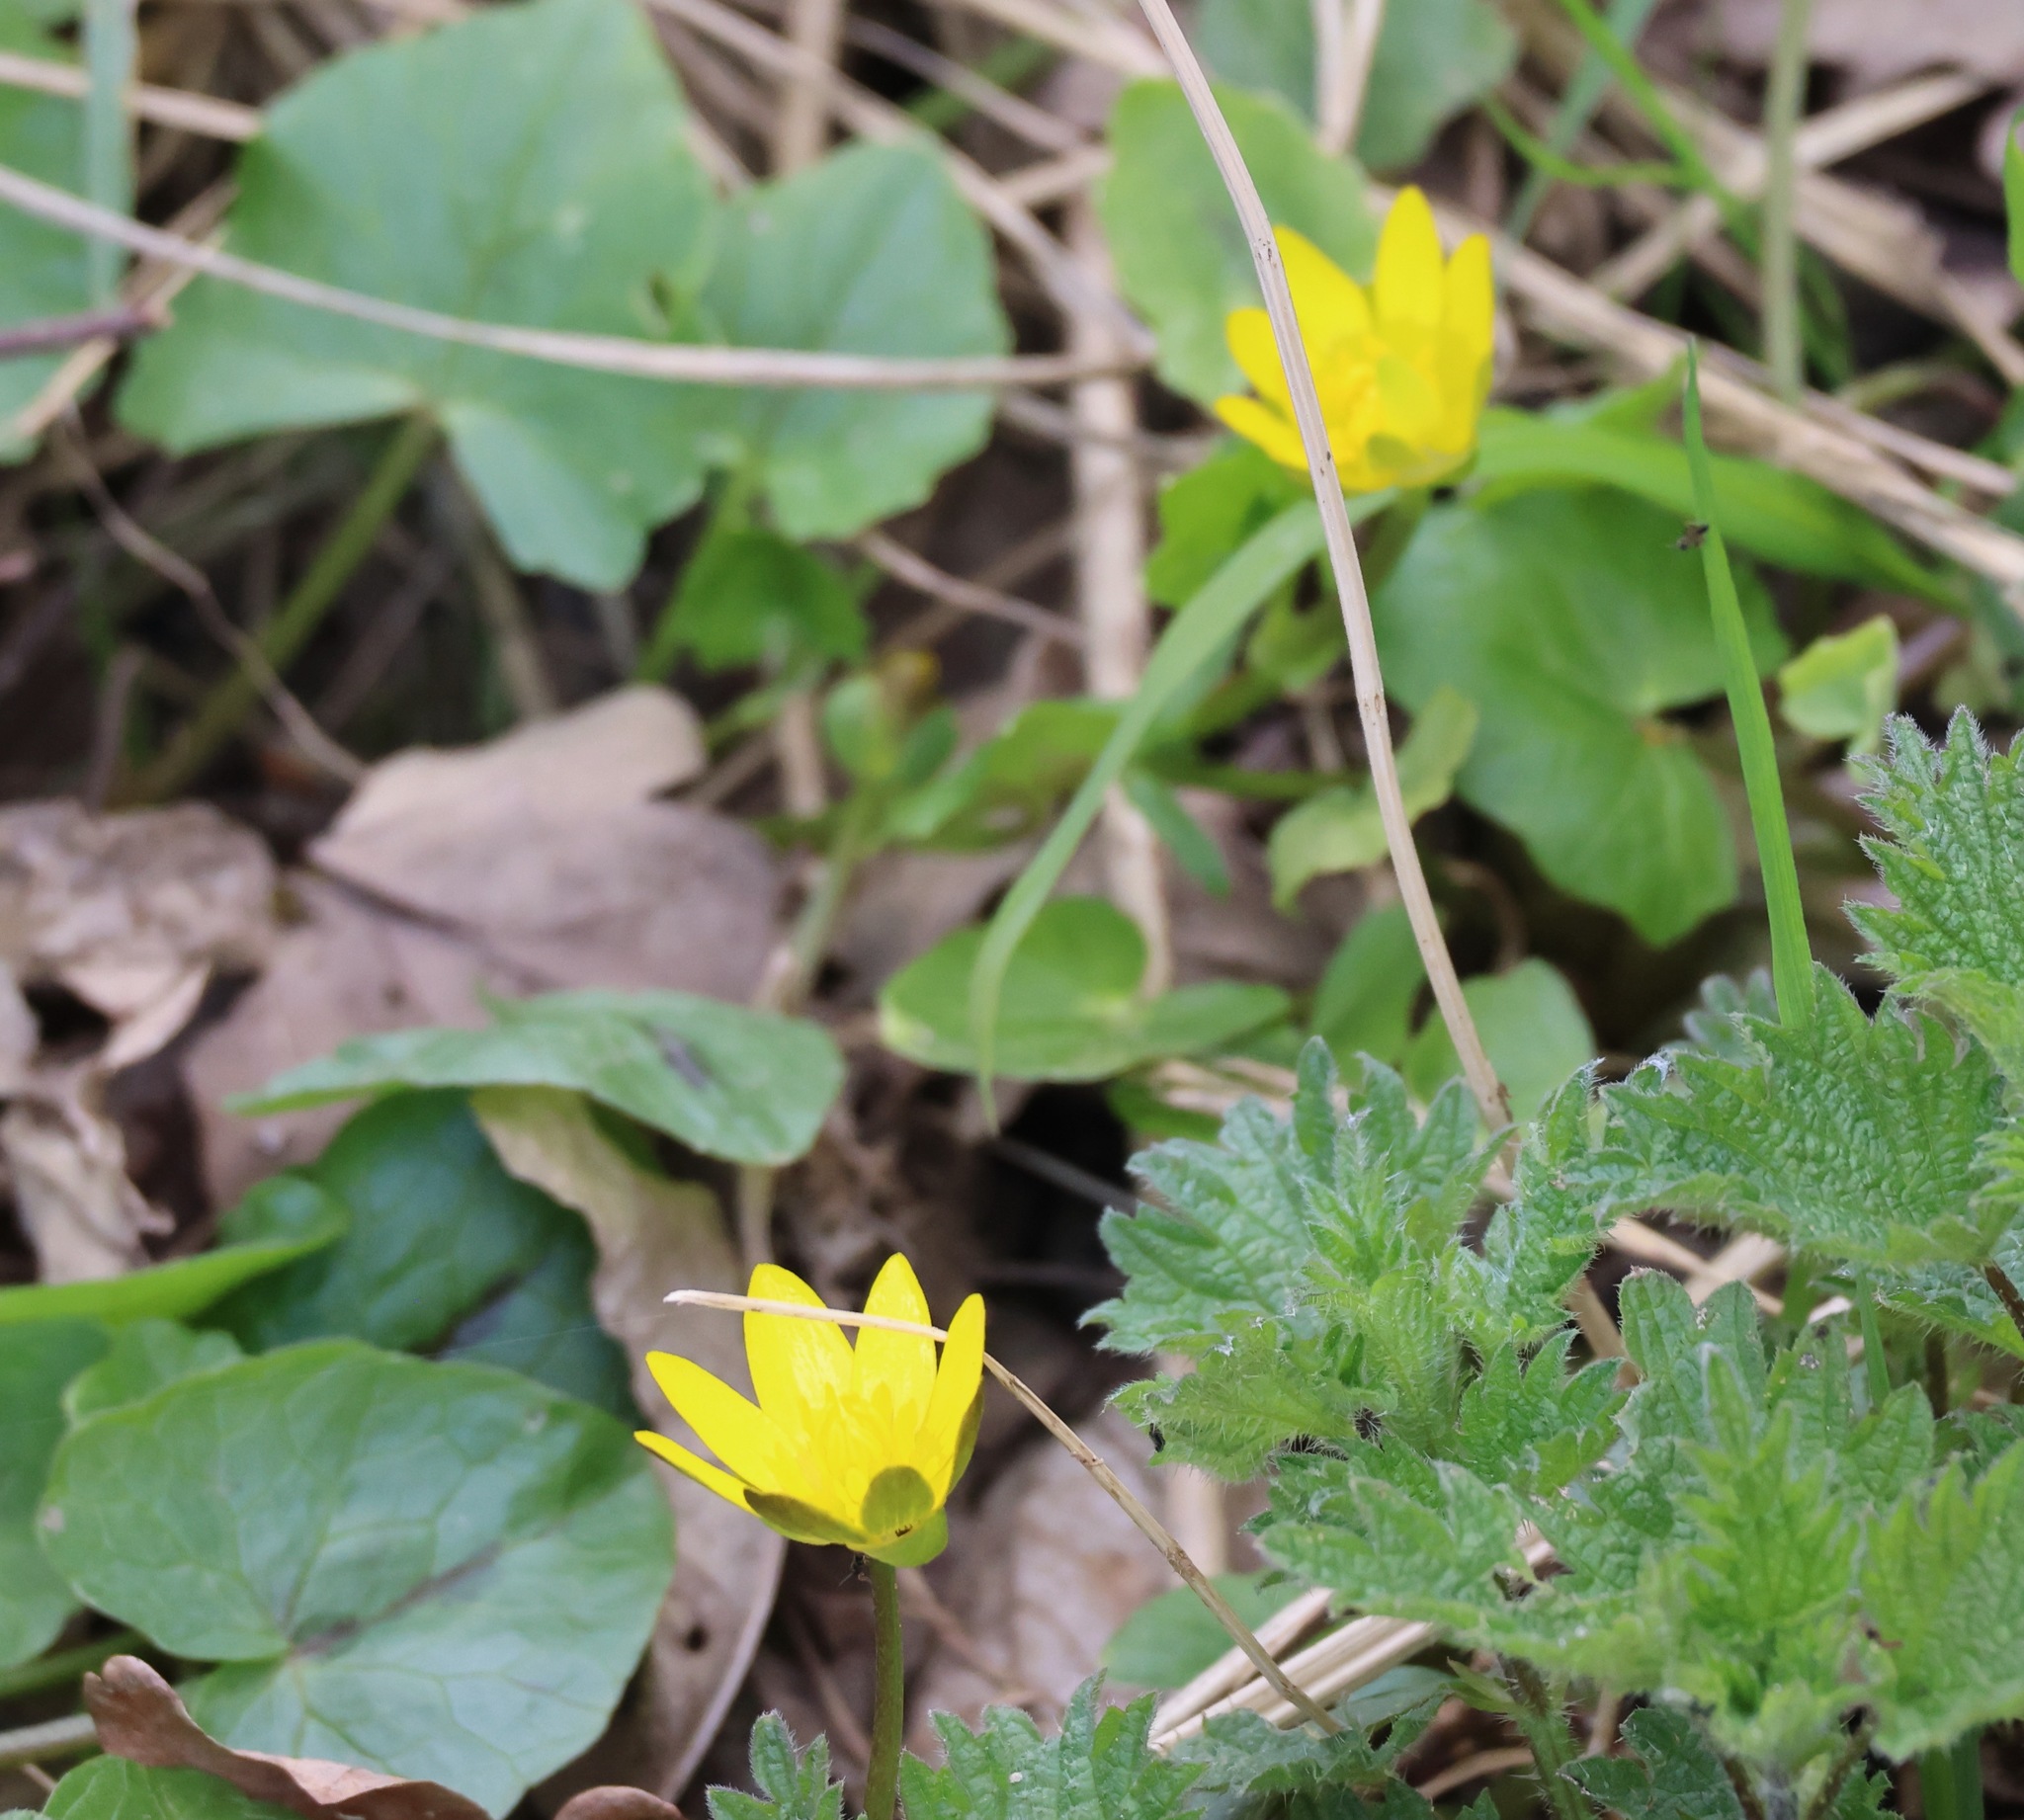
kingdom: Plantae
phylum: Tracheophyta
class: Magnoliopsida
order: Ranunculales
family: Ranunculaceae
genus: Ficaria
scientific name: Ficaria verna
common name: Lesser celandine
